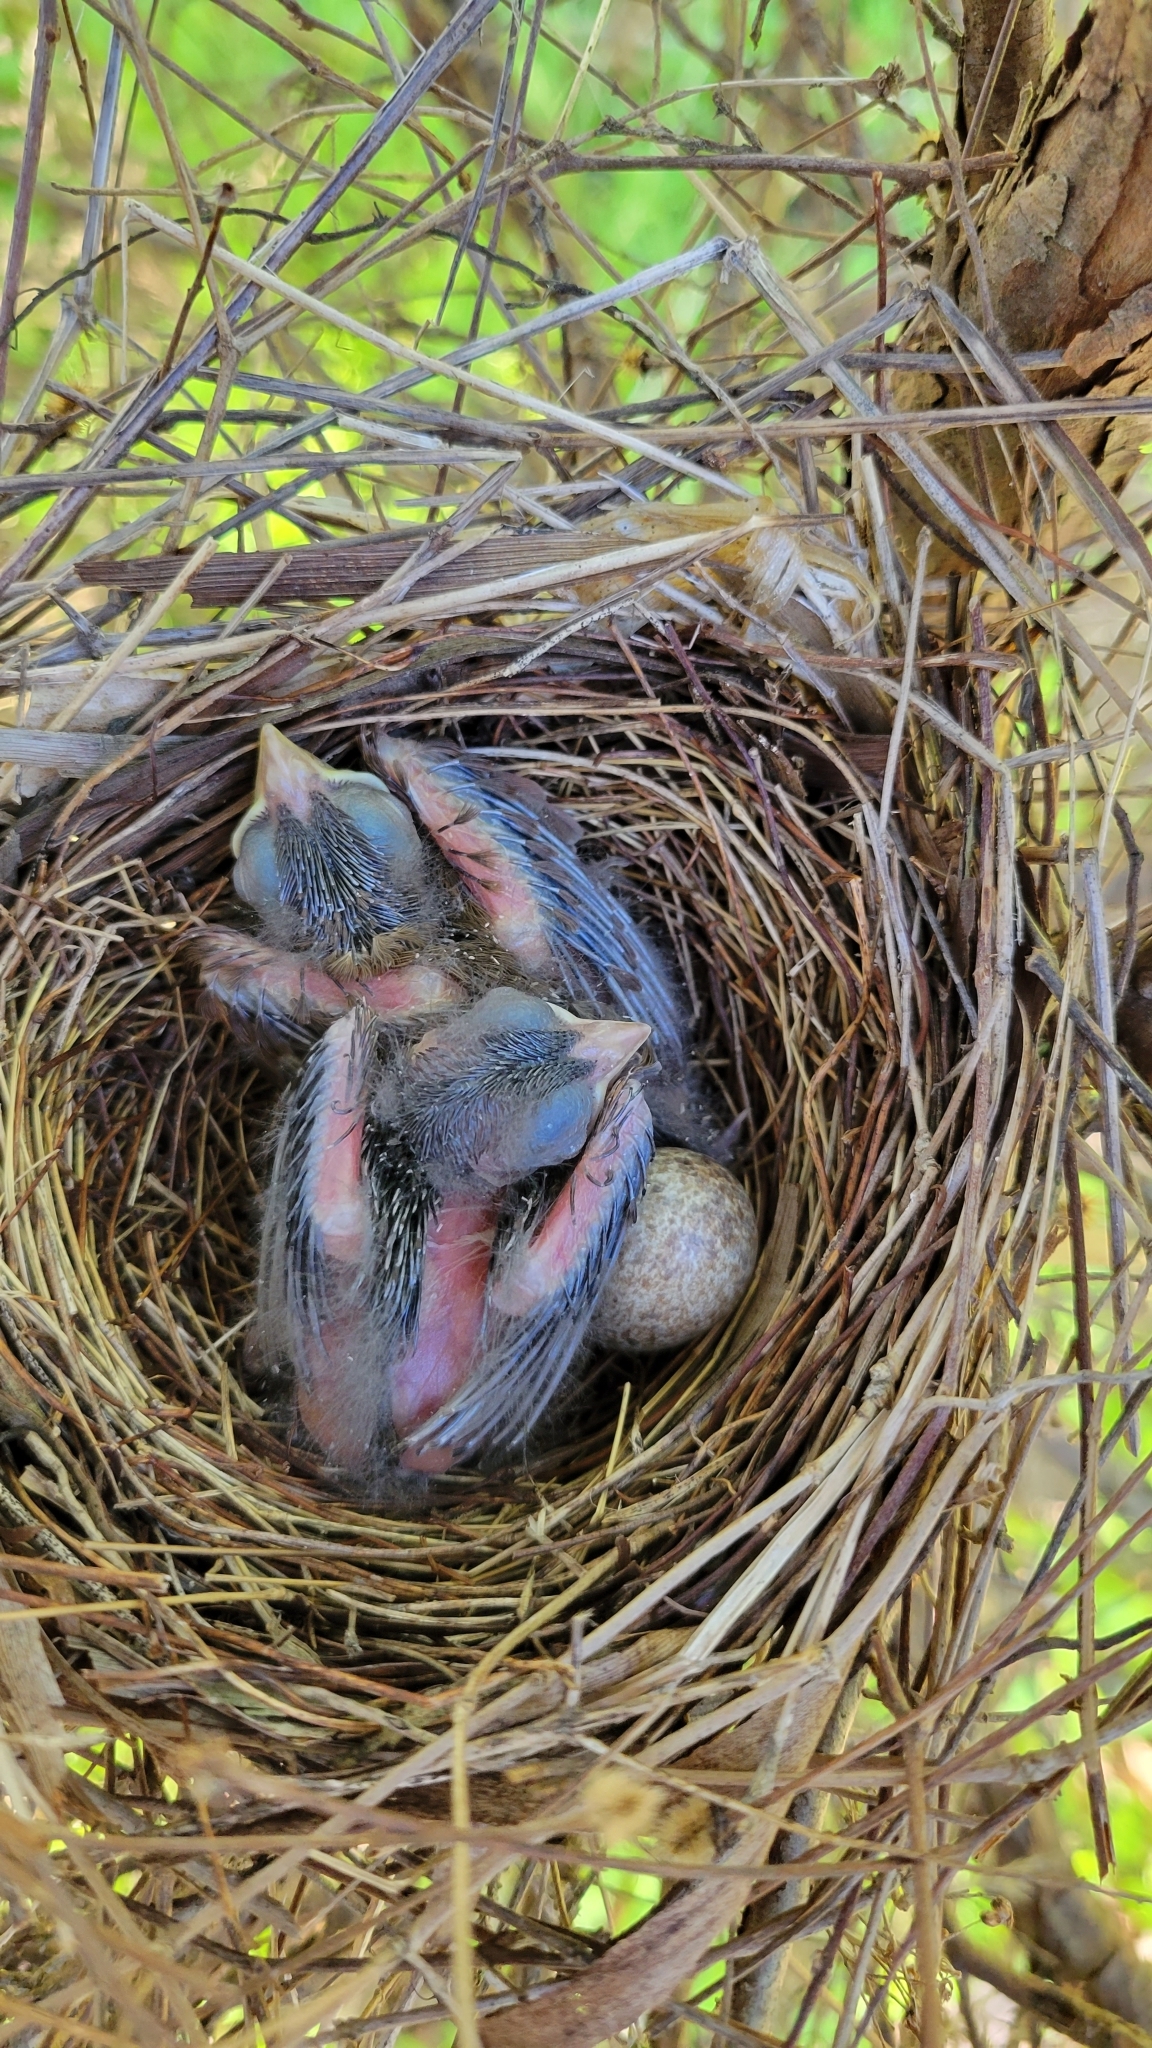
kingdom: Animalia
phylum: Chordata
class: Aves
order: Passeriformes
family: Cardinalidae
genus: Cardinalis
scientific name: Cardinalis cardinalis
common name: Northern cardinal
